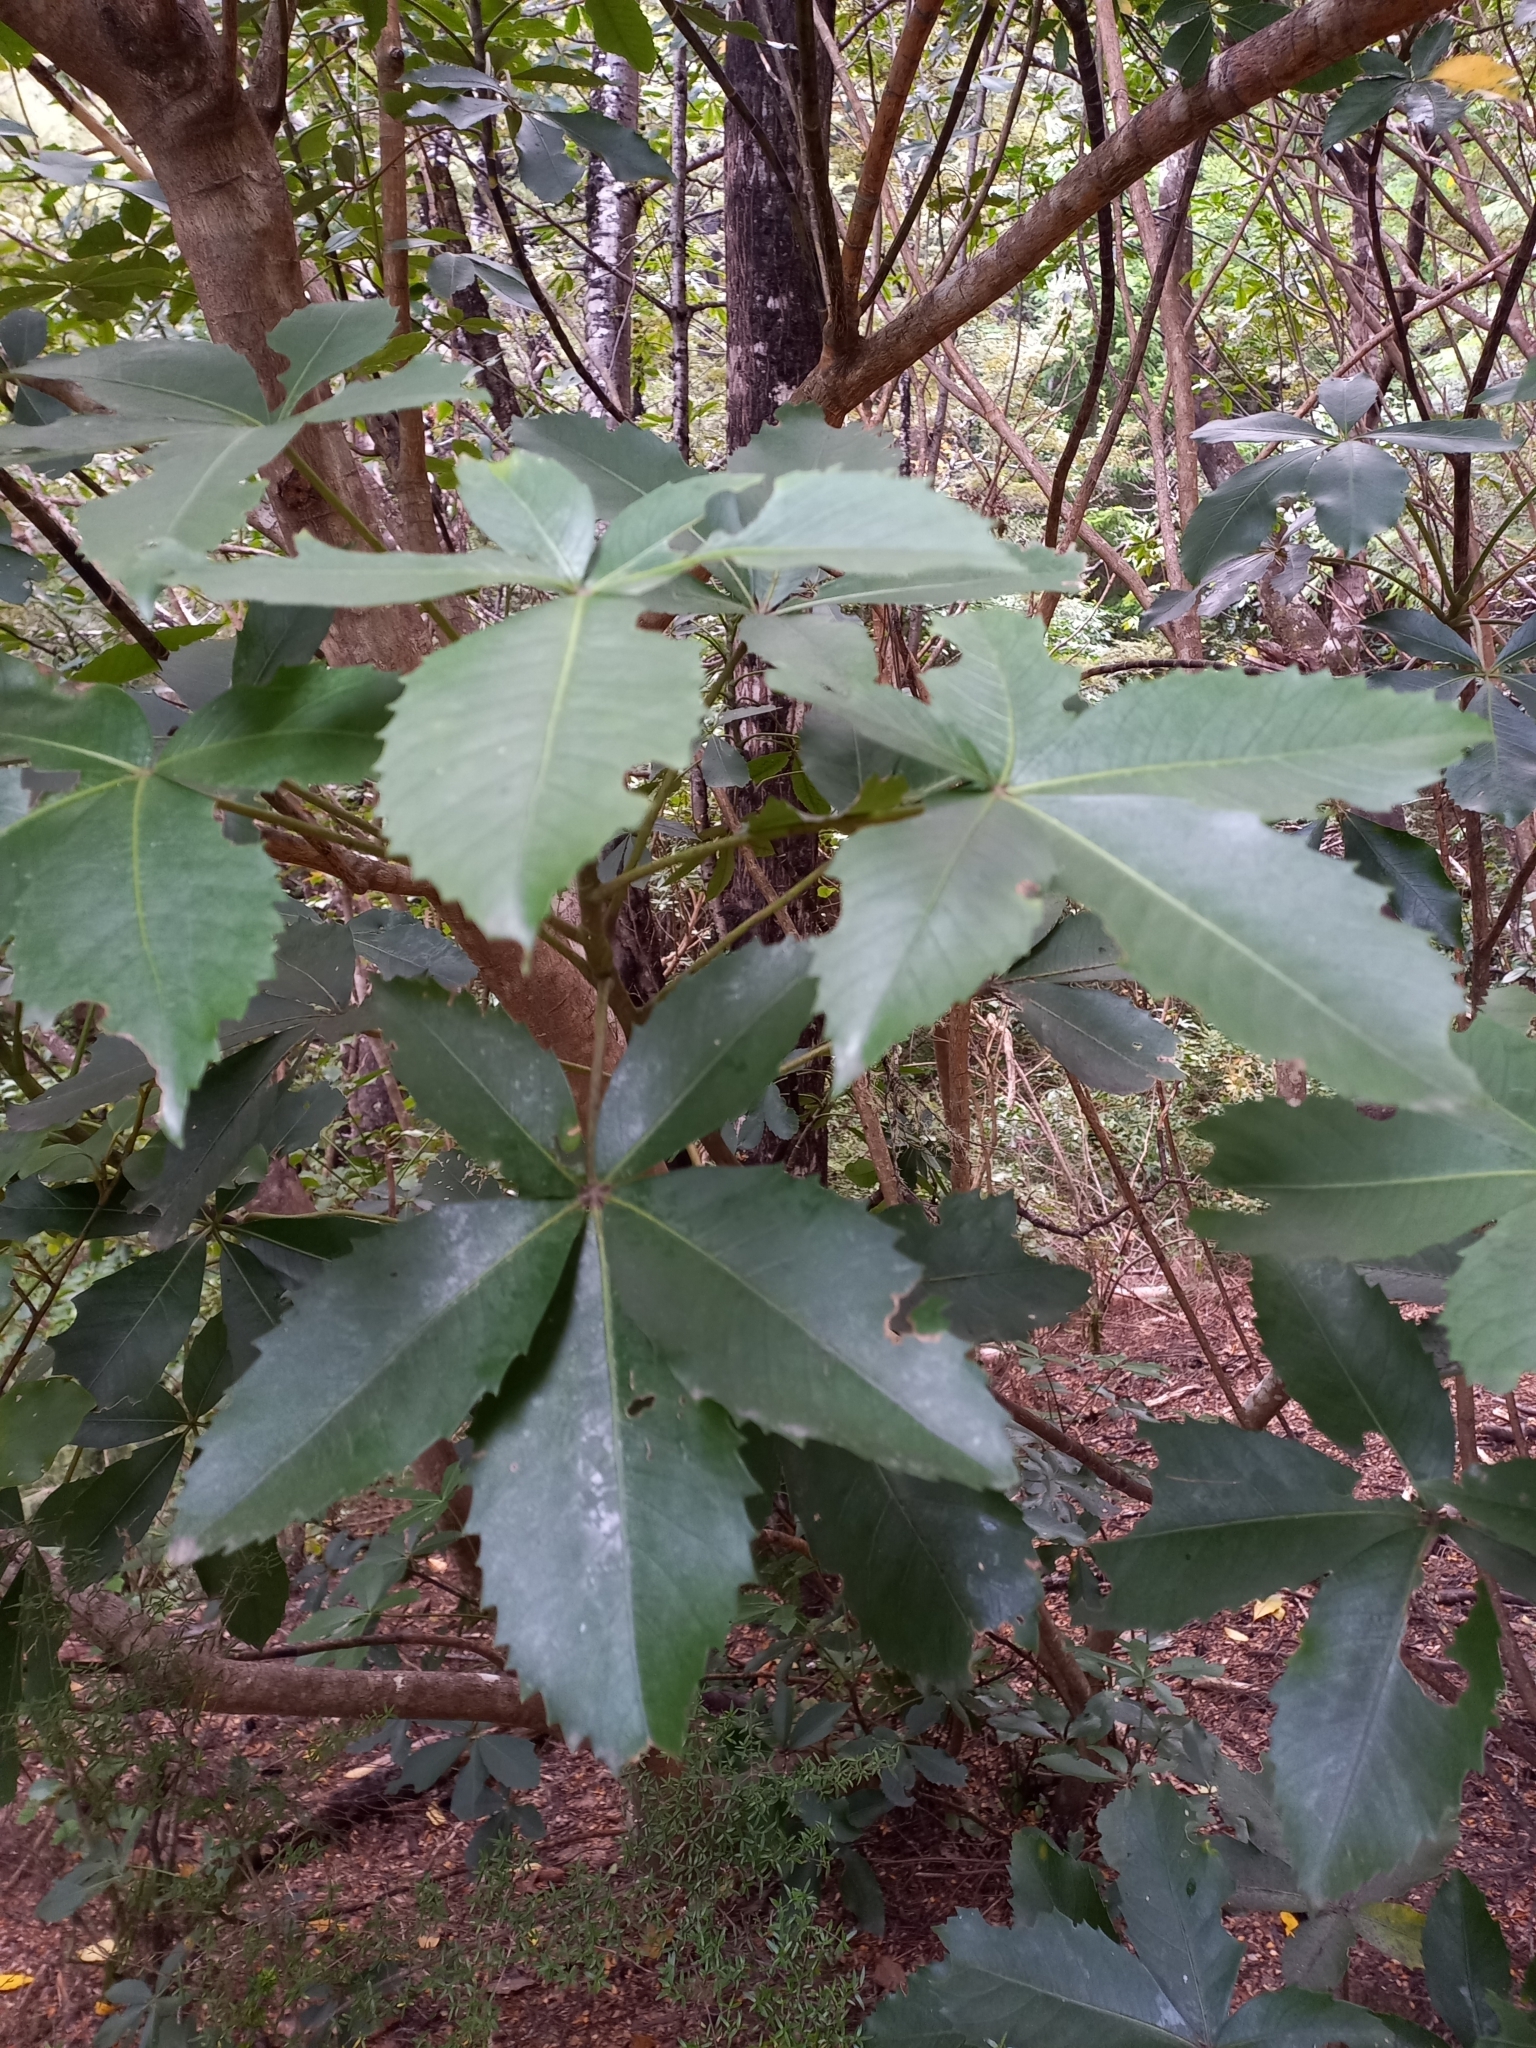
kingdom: Plantae
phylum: Tracheophyta
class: Magnoliopsida
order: Apiales
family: Araliaceae
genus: Neopanax
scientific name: Neopanax colensoi
